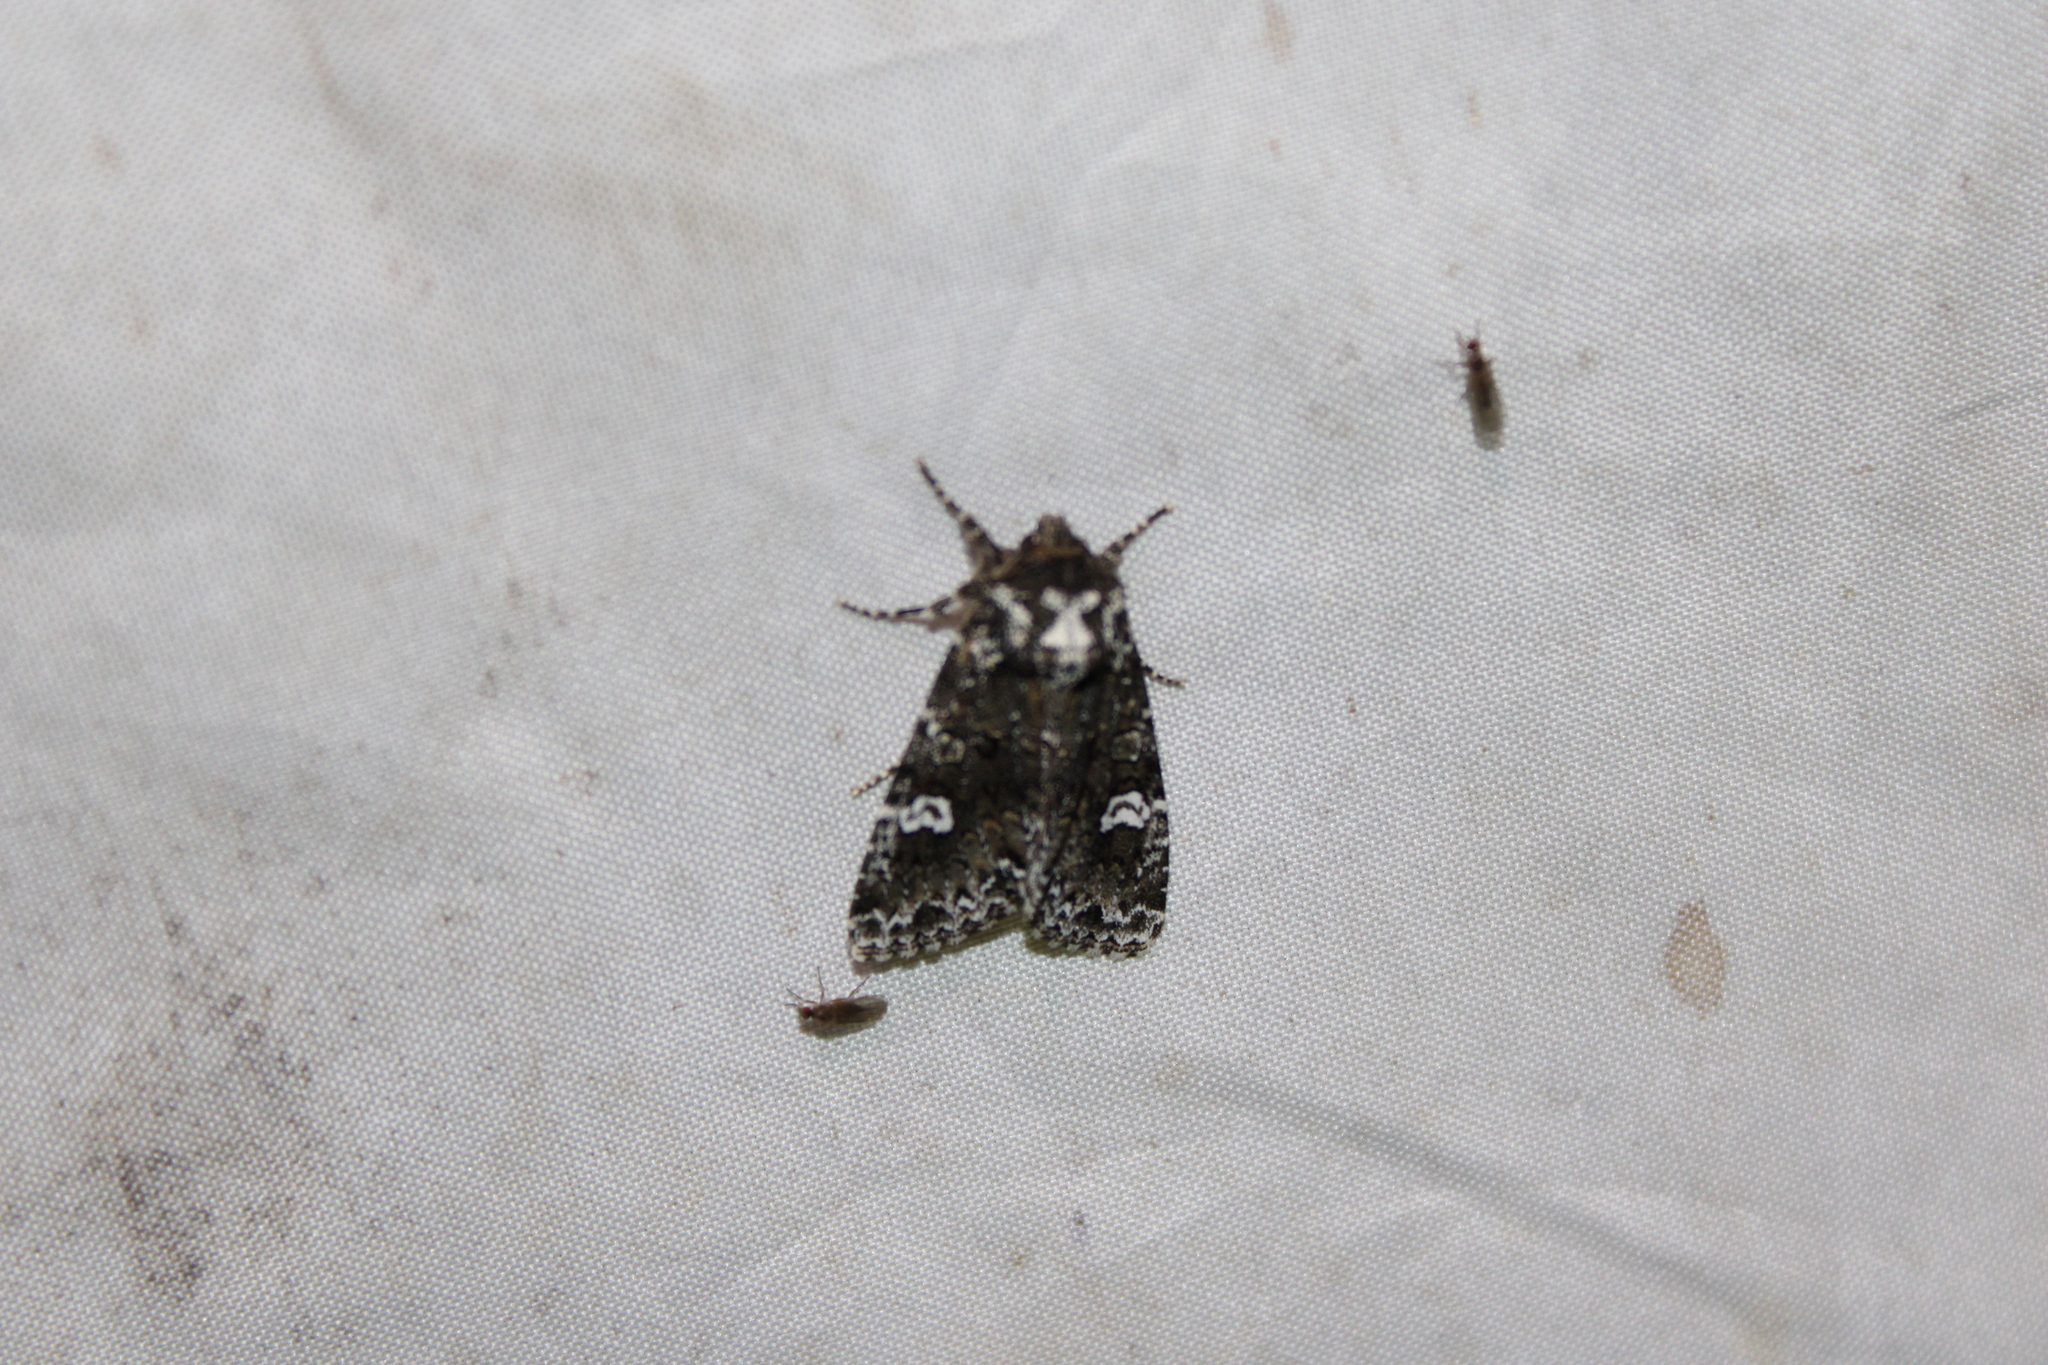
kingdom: Animalia
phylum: Arthropoda
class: Insecta
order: Lepidoptera
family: Noctuidae
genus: Melanchra
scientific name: Melanchra adjuncta
